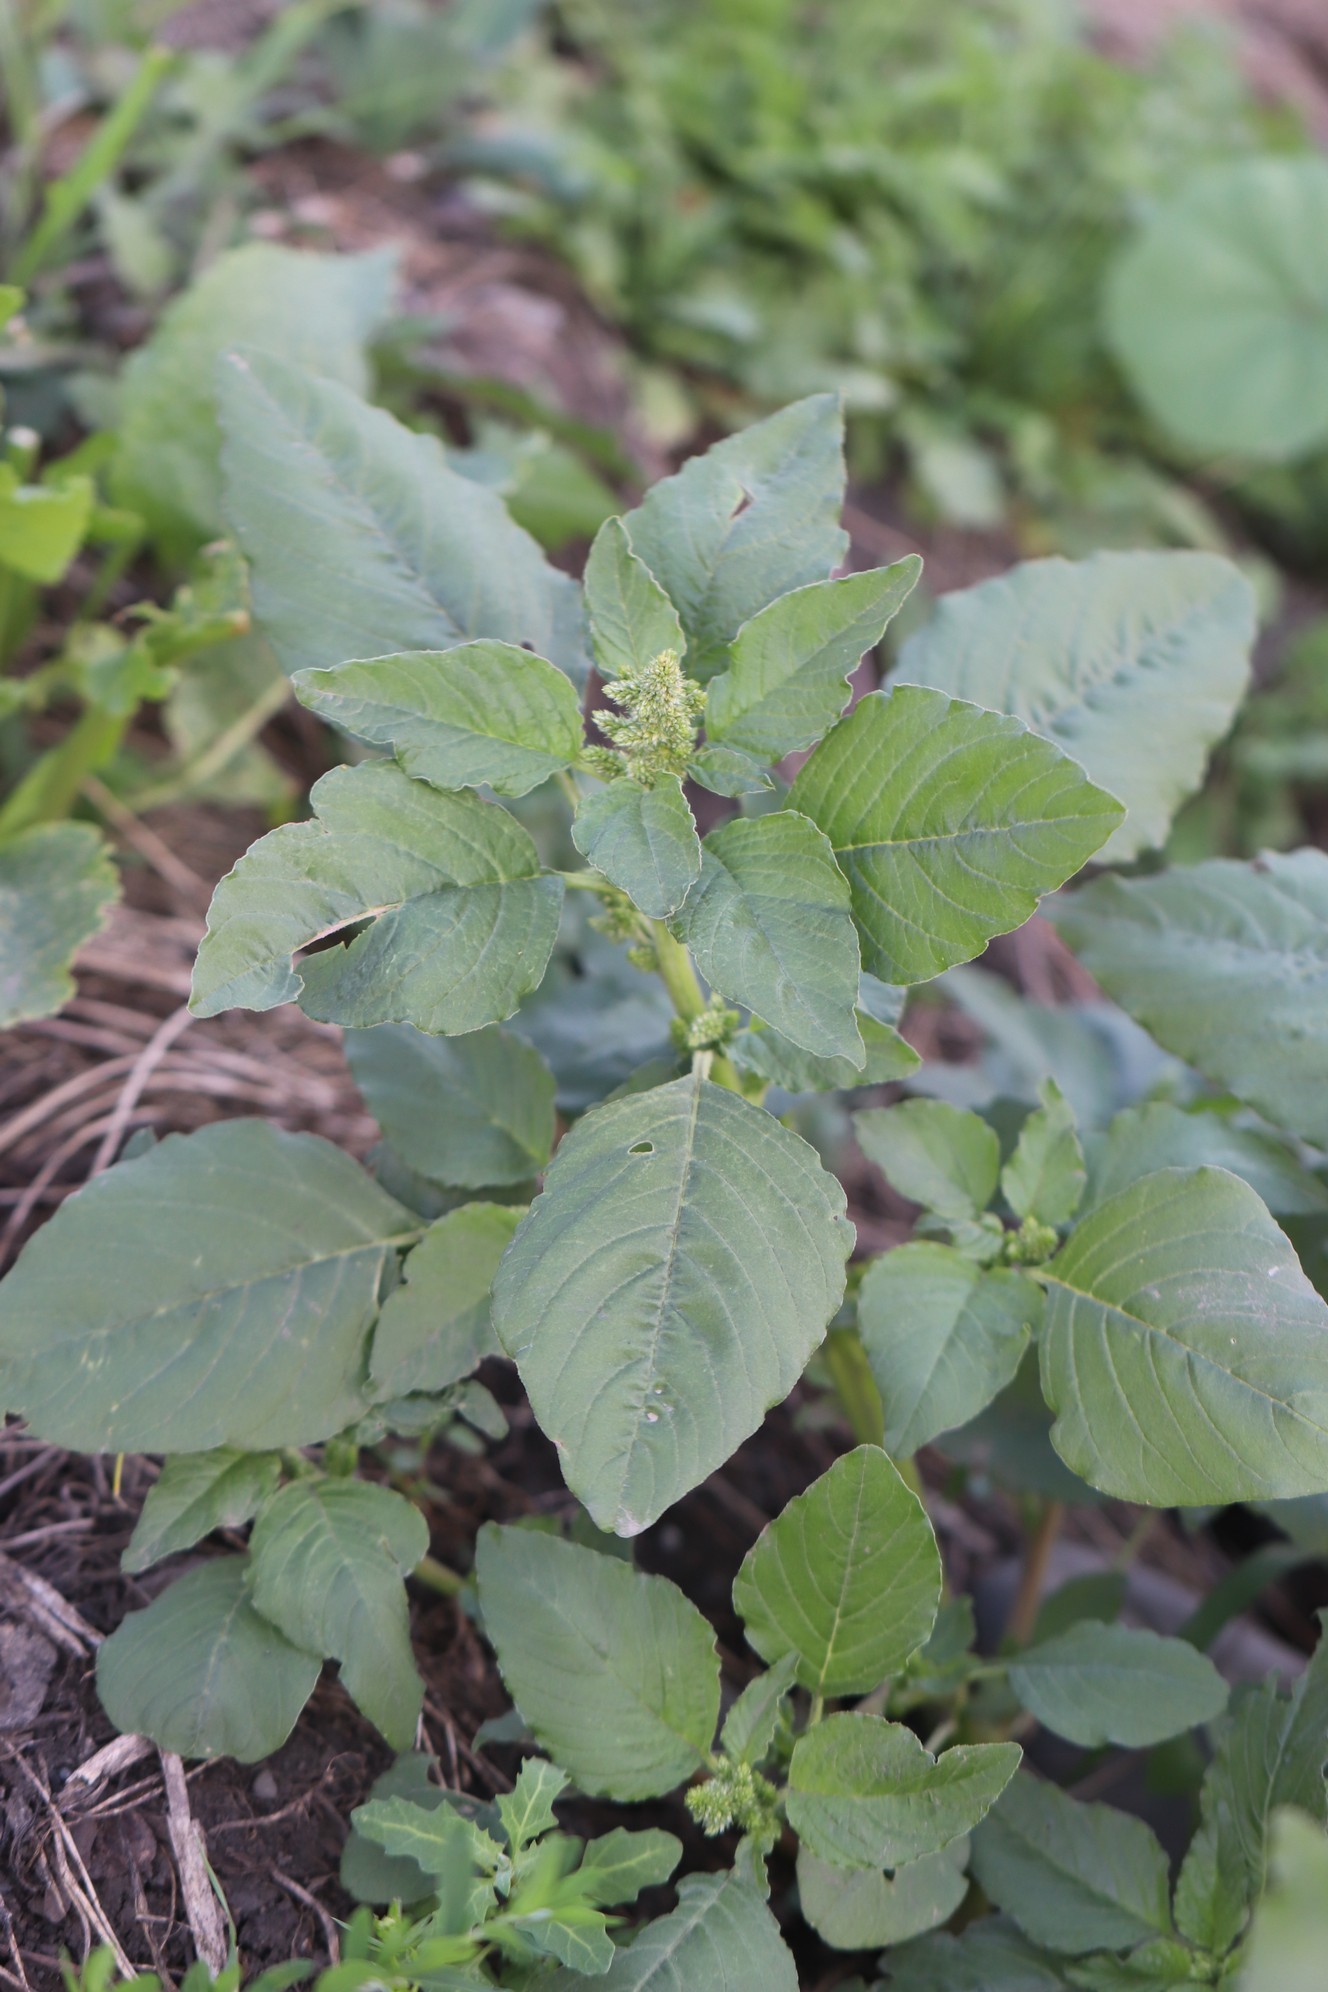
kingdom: Plantae
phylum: Tracheophyta
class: Magnoliopsida
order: Caryophyllales
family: Amaranthaceae
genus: Amaranthus
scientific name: Amaranthus retroflexus
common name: Redroot amaranth
